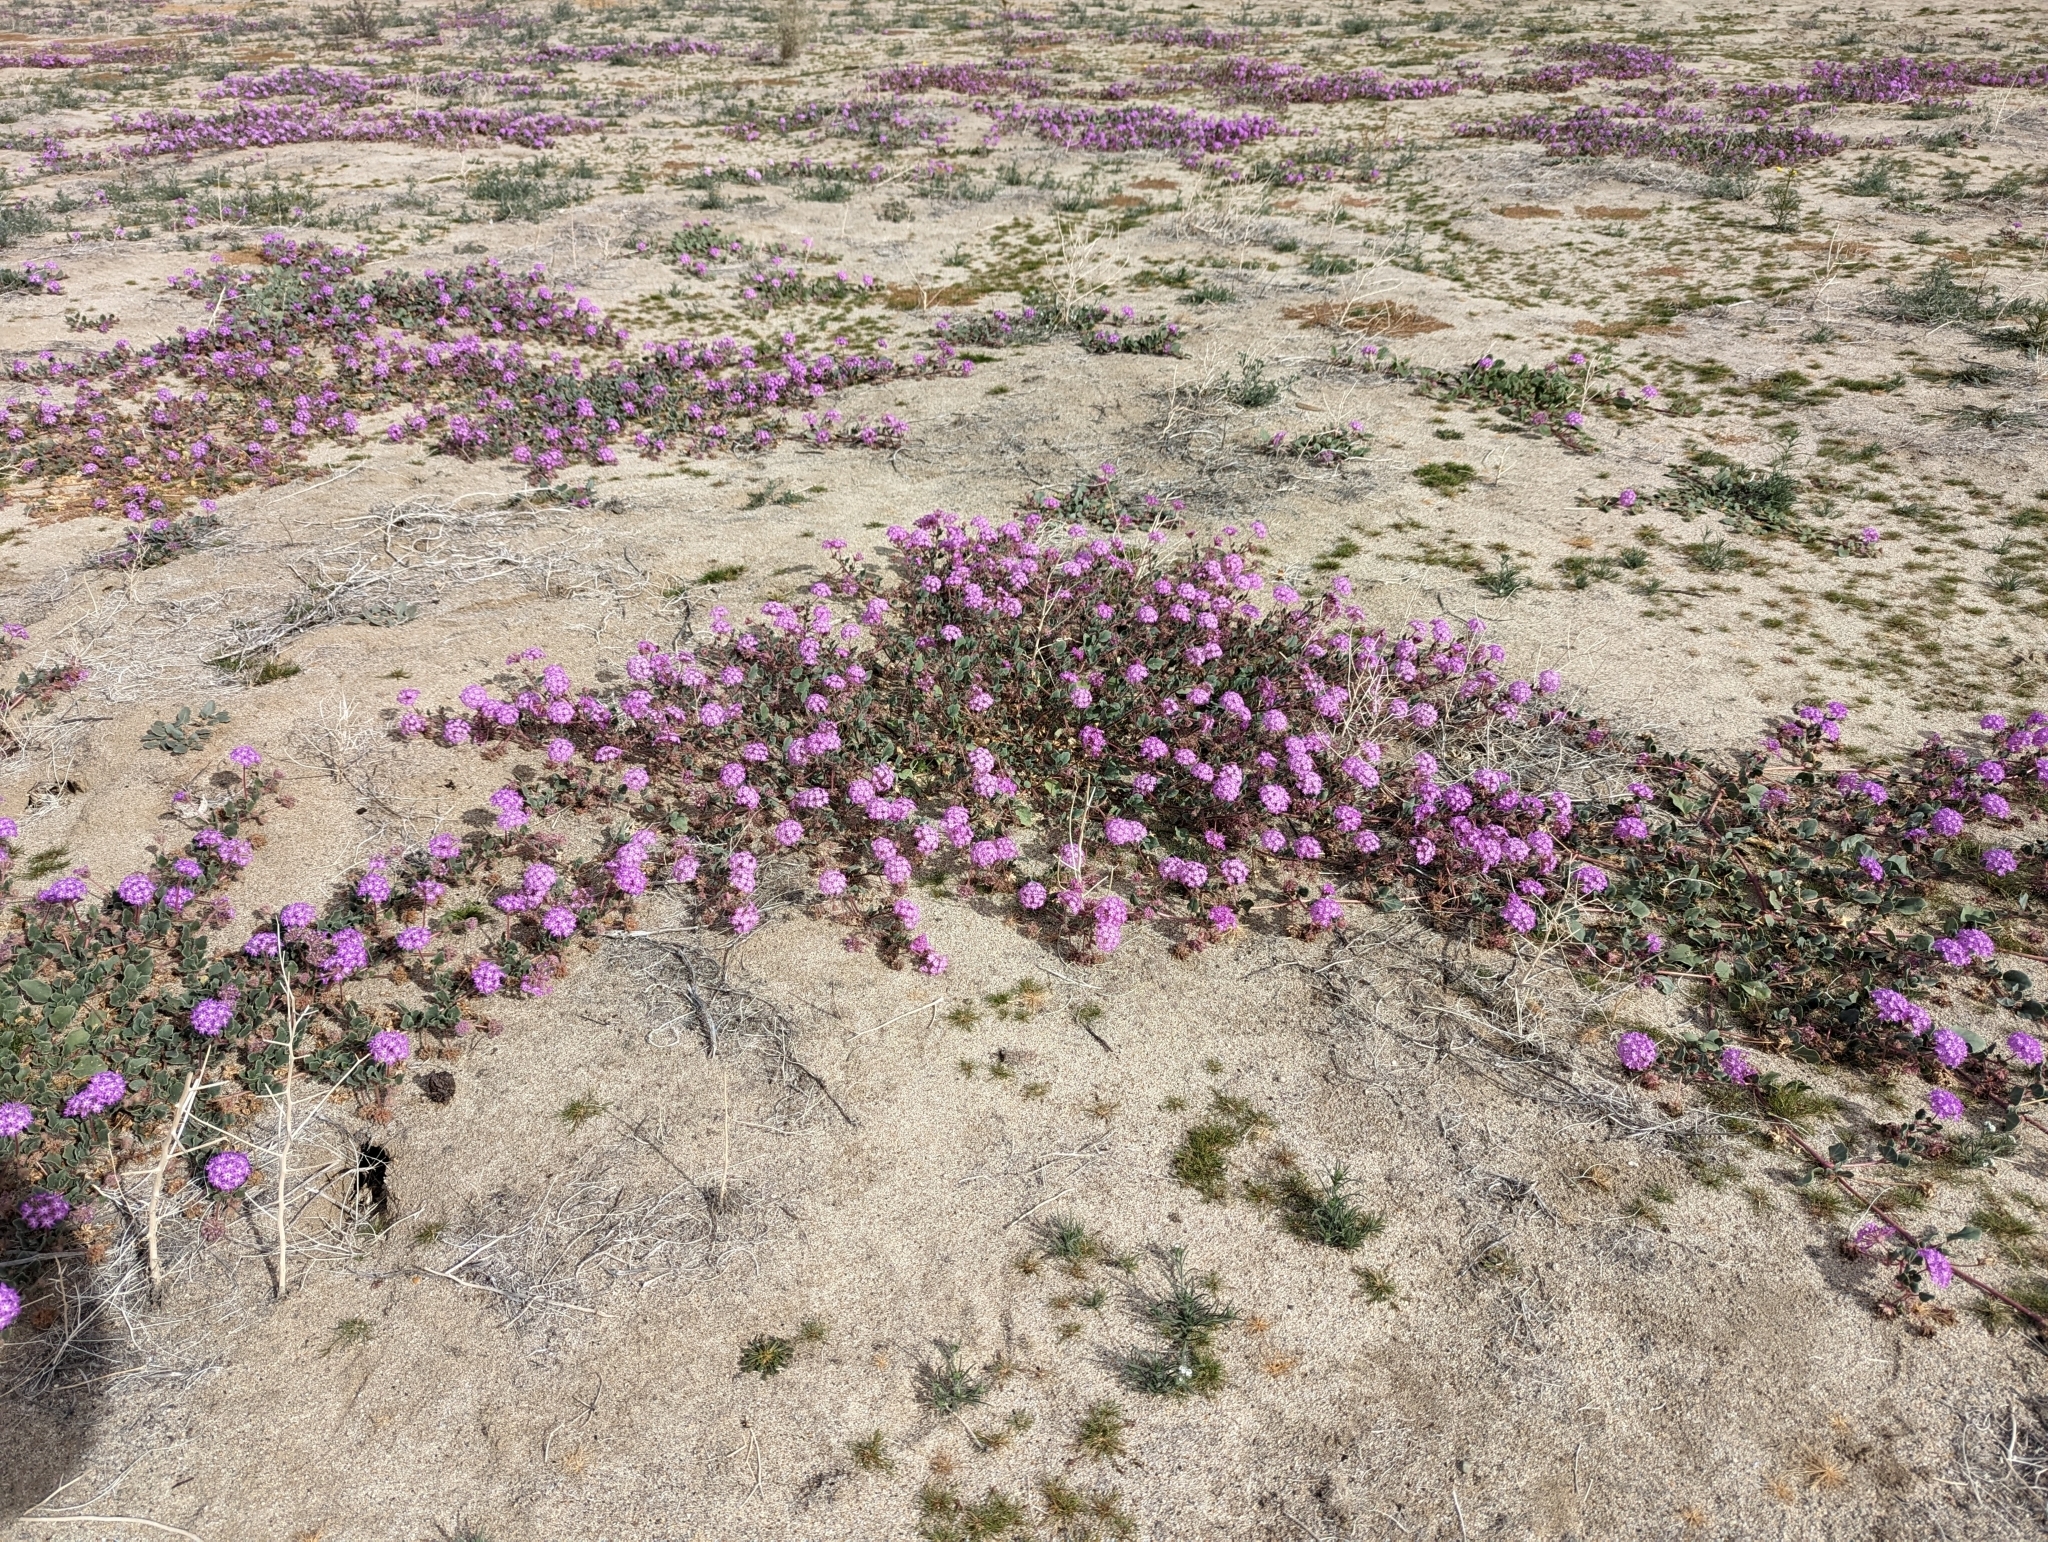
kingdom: Plantae
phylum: Tracheophyta
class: Magnoliopsida
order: Caryophyllales
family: Nyctaginaceae
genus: Abronia
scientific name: Abronia villosa
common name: Desert sand-verbena
